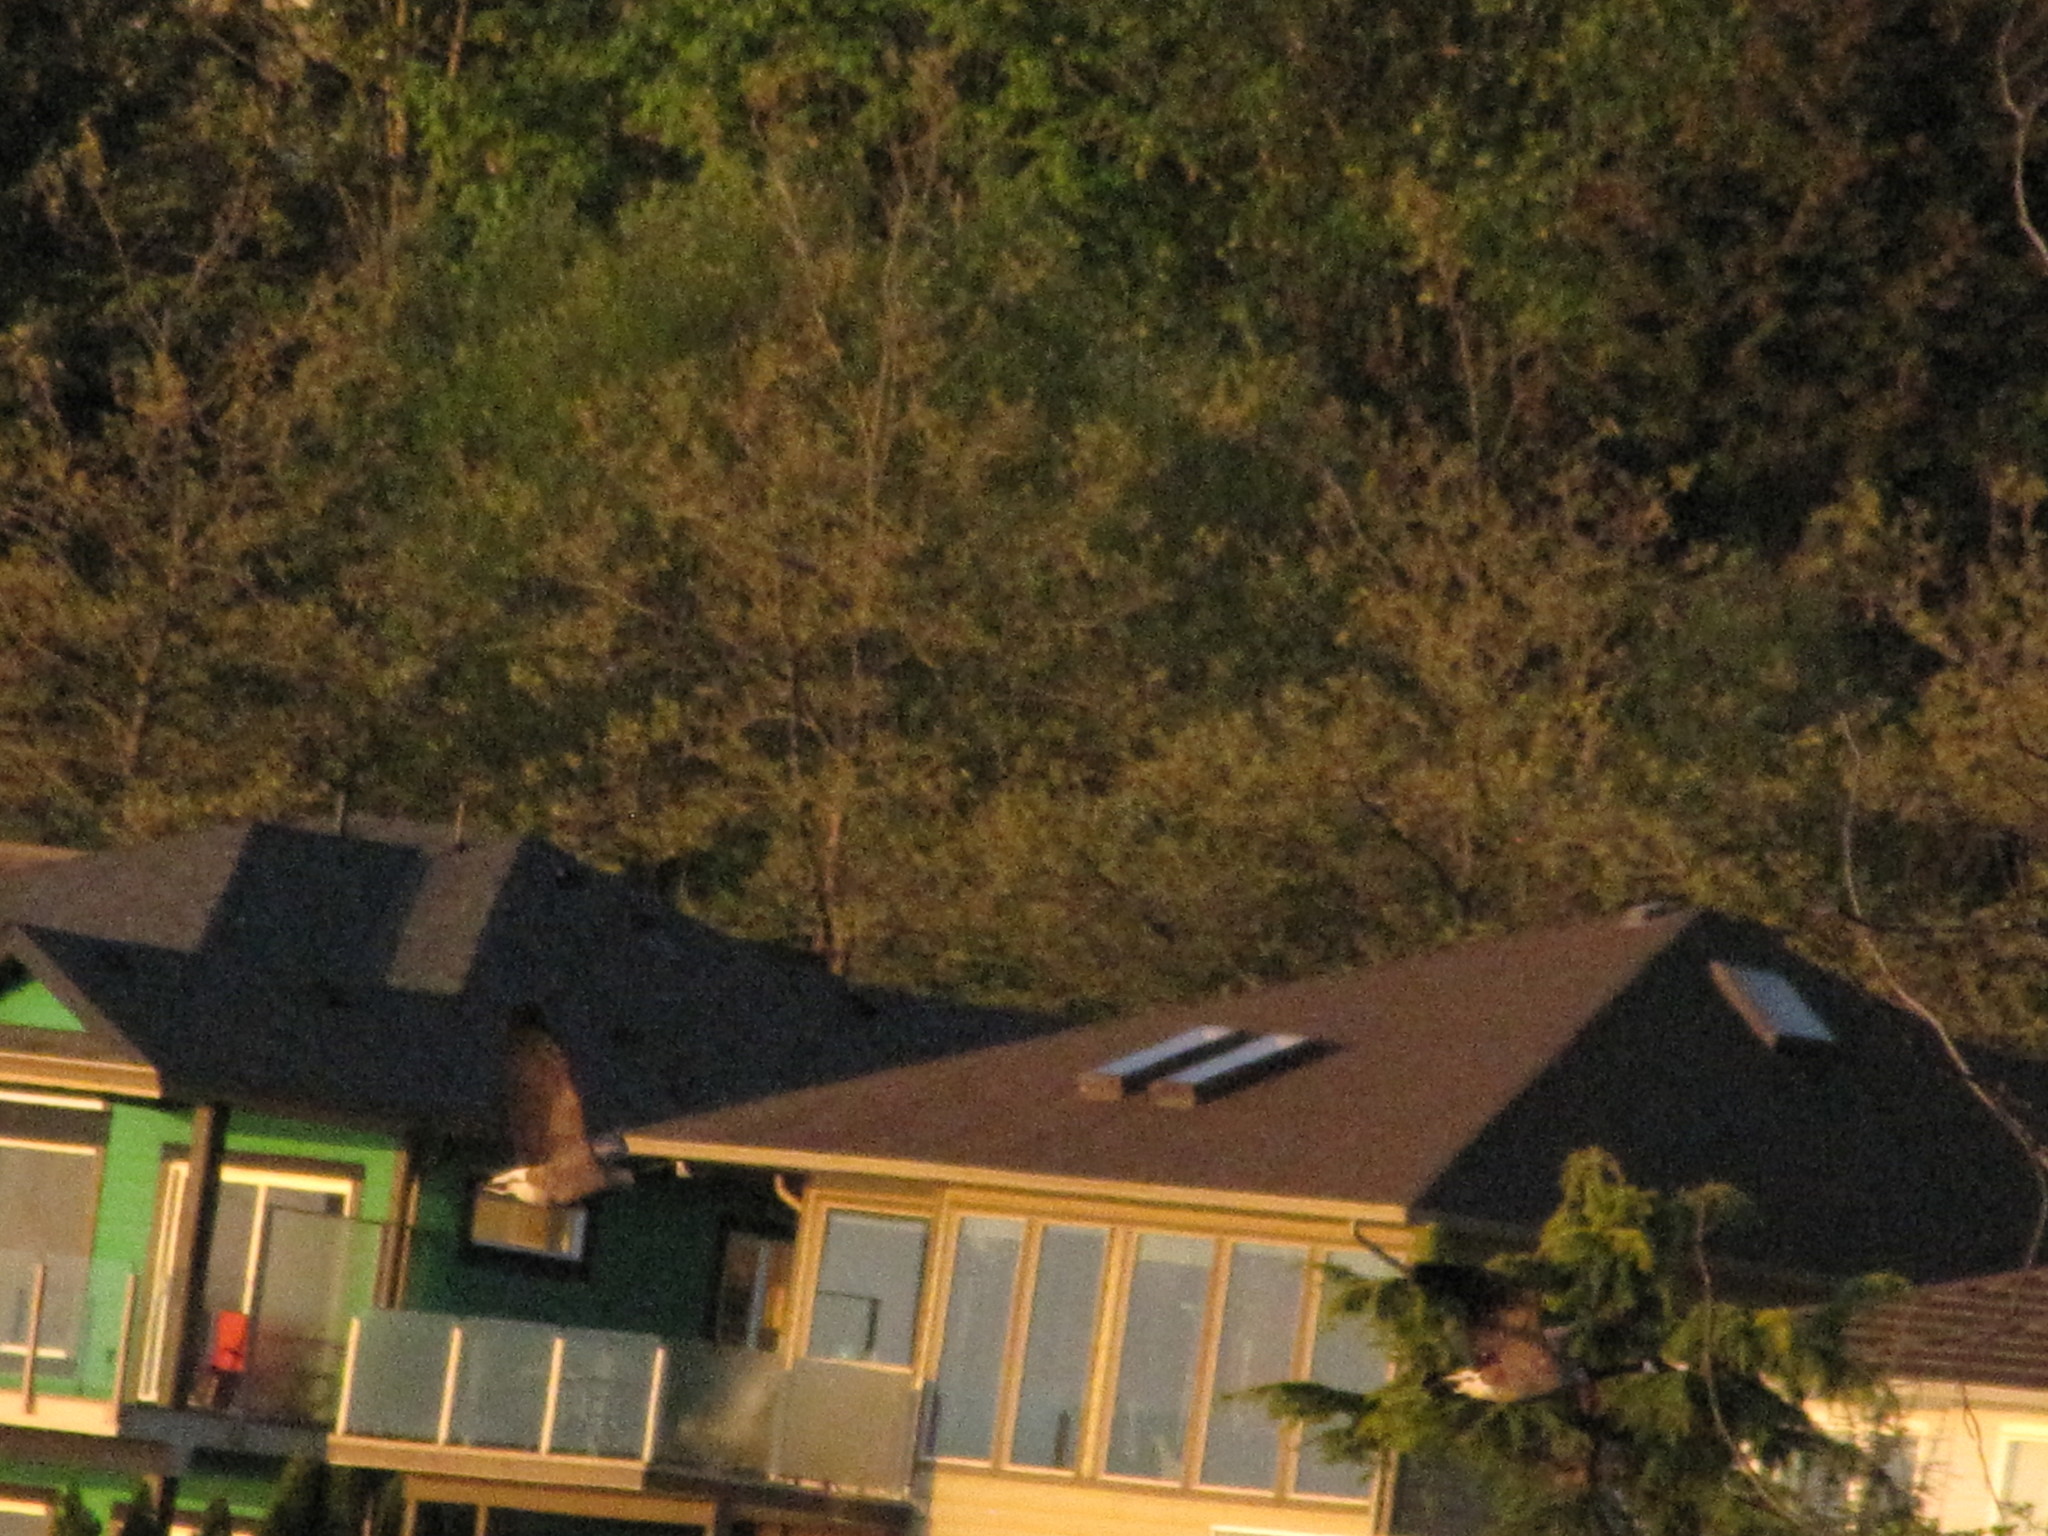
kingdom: Animalia
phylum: Chordata
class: Aves
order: Anseriformes
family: Anatidae
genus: Branta
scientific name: Branta canadensis
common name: Canada goose
